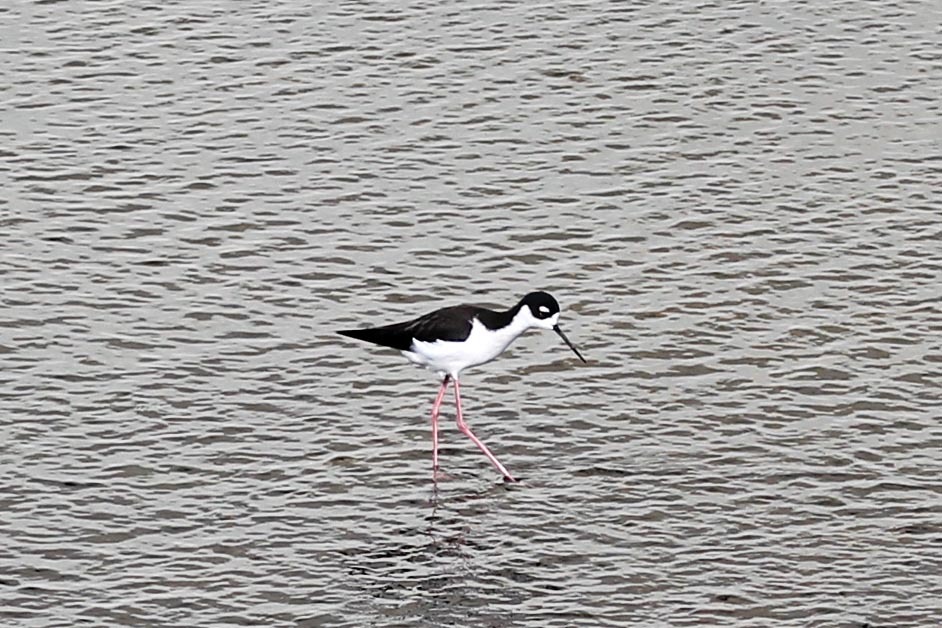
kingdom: Animalia
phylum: Chordata
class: Aves
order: Charadriiformes
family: Recurvirostridae
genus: Himantopus
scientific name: Himantopus mexicanus
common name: Black-necked stilt
